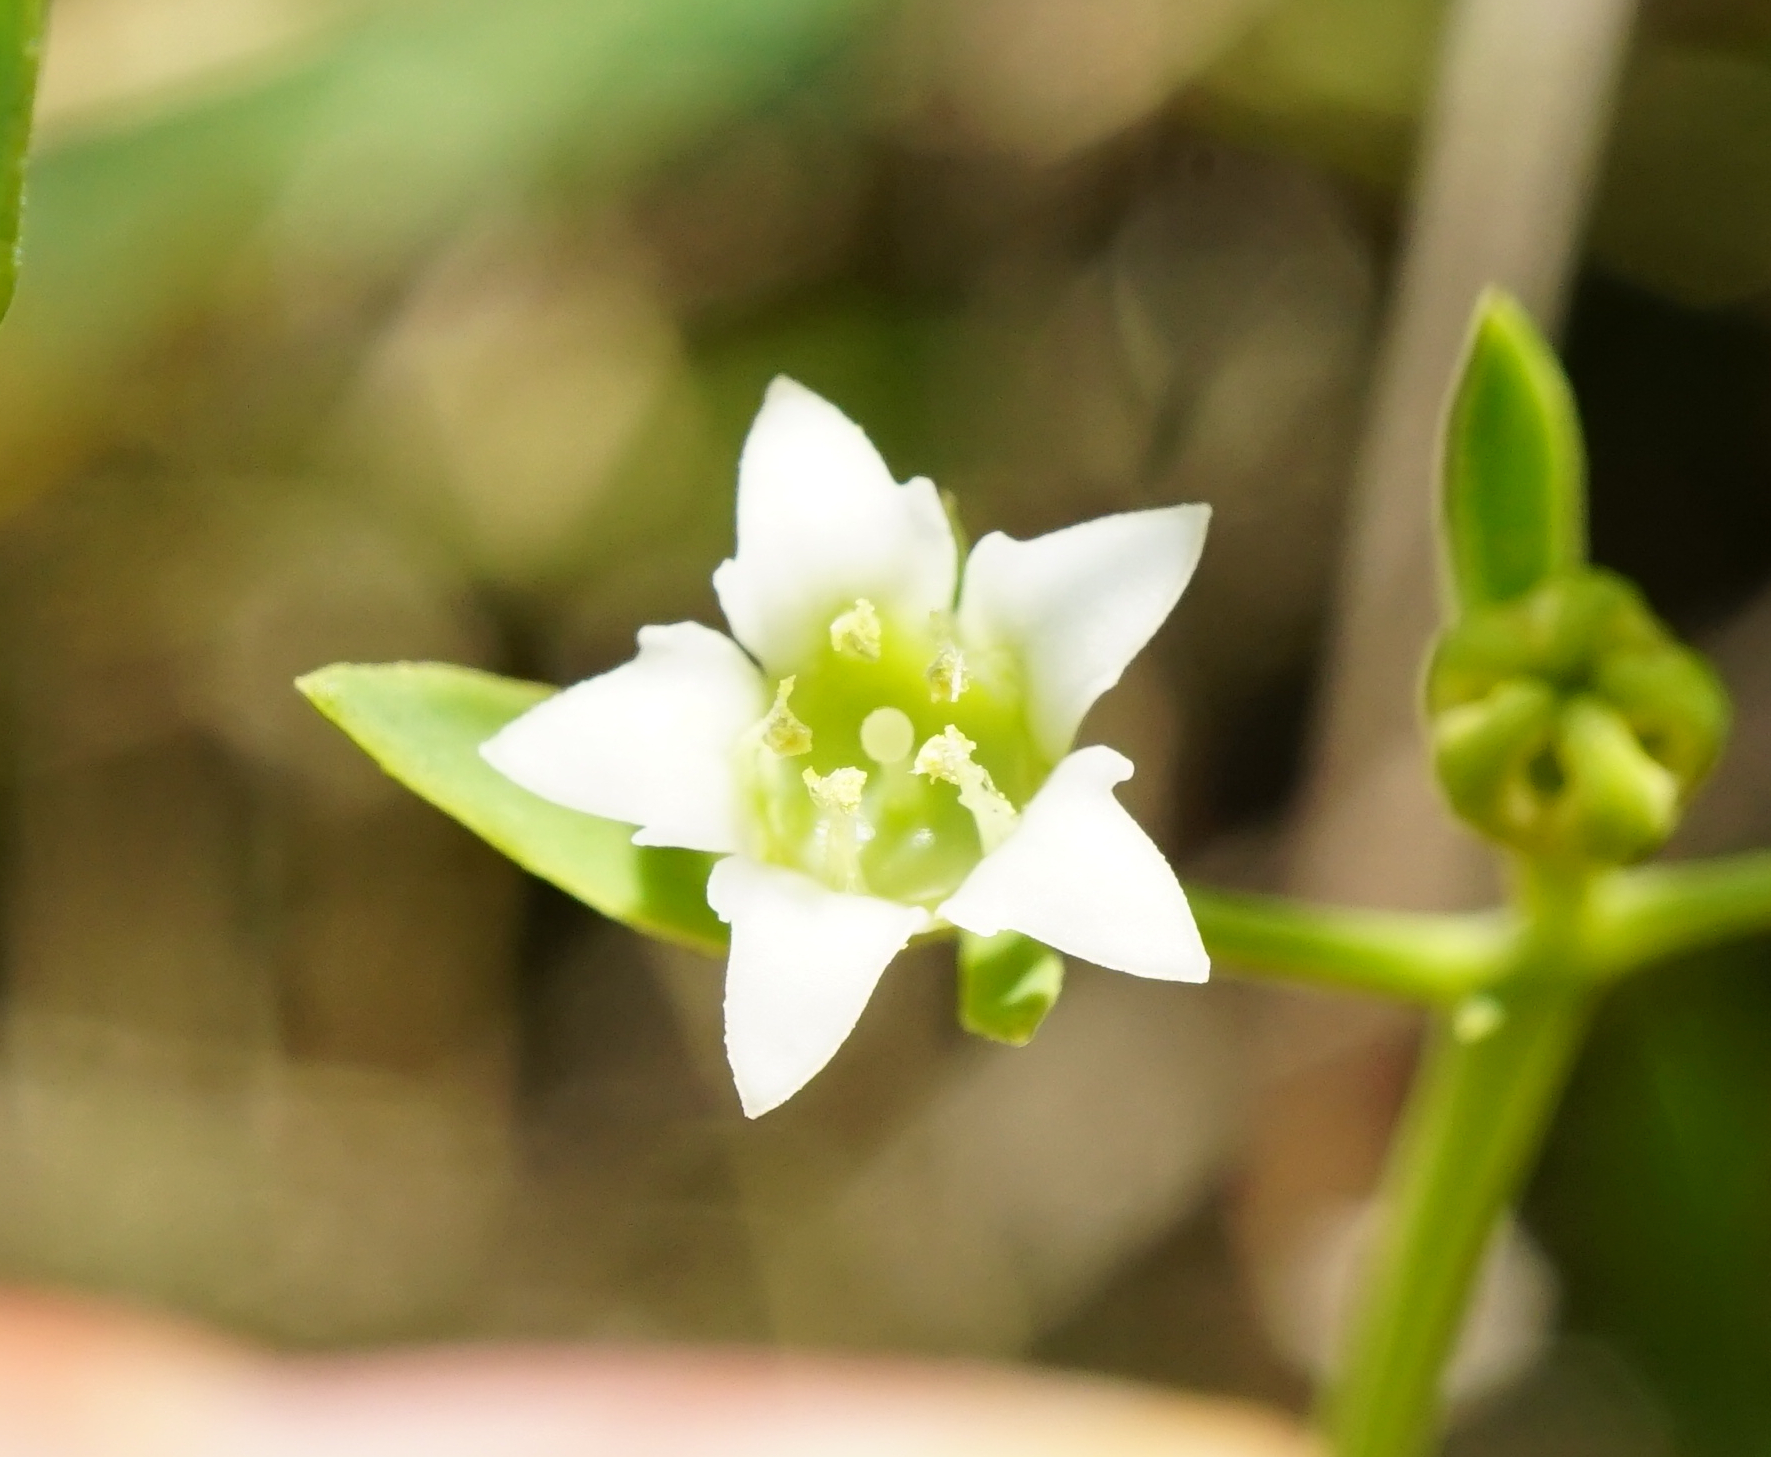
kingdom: Plantae
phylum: Tracheophyta
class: Magnoliopsida
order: Santalales
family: Thesiaceae
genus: Thesium
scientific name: Thesium bavarum
